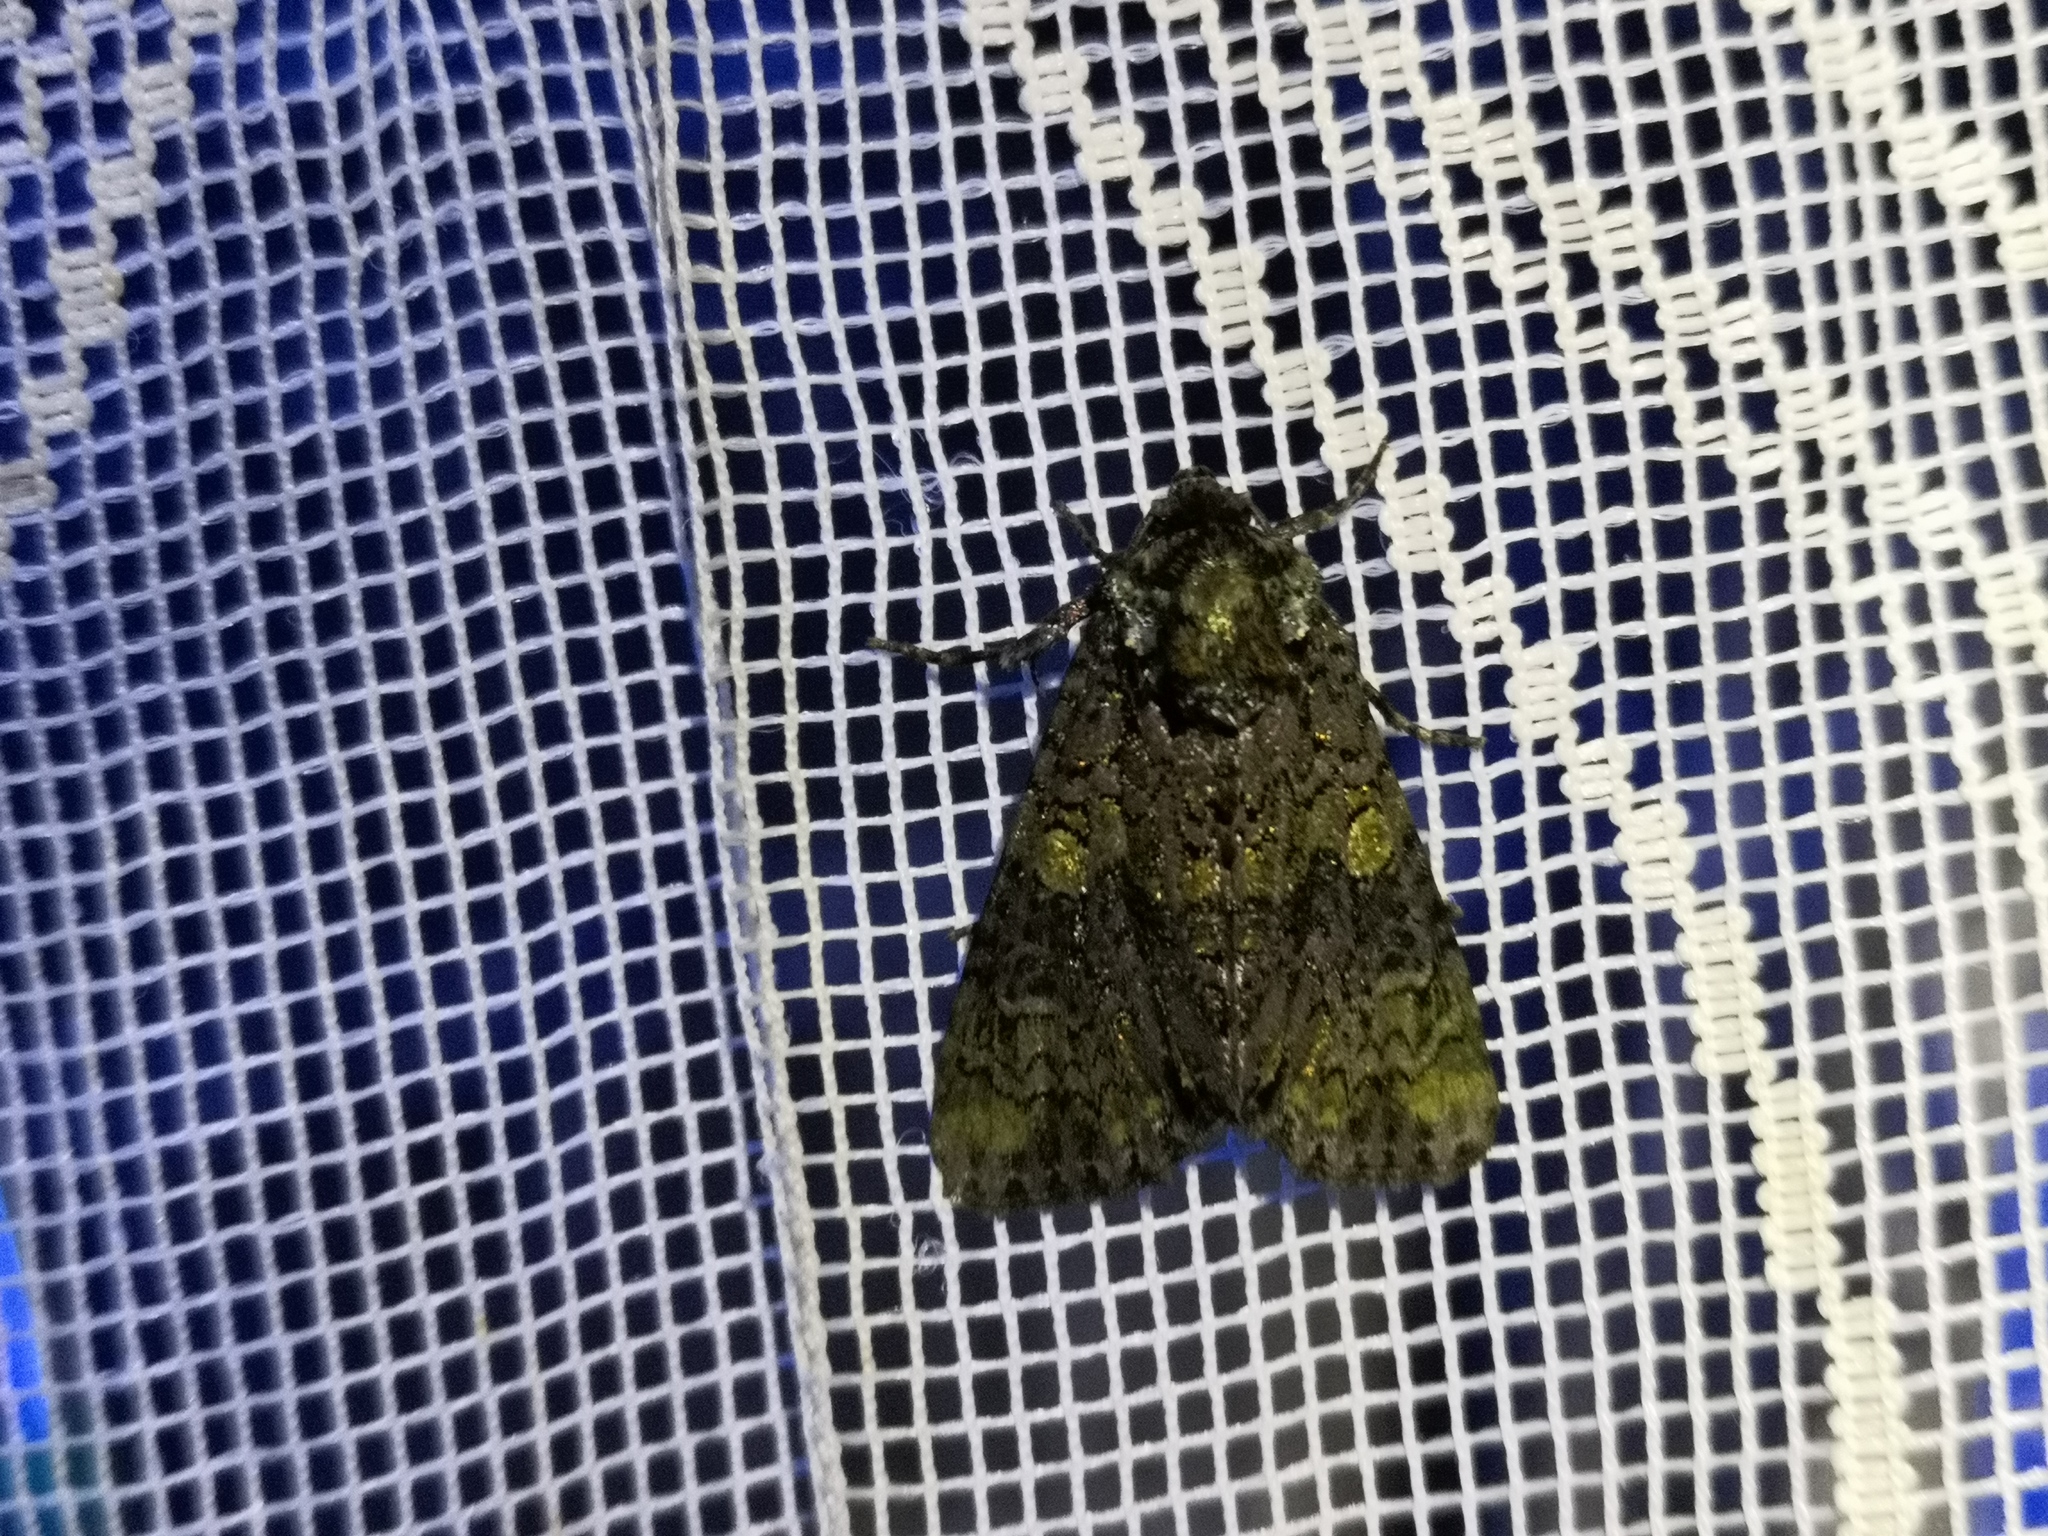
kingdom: Animalia
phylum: Arthropoda
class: Insecta
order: Lepidoptera
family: Noctuidae
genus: Craniophora
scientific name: Craniophora ligustri
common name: Coronet
